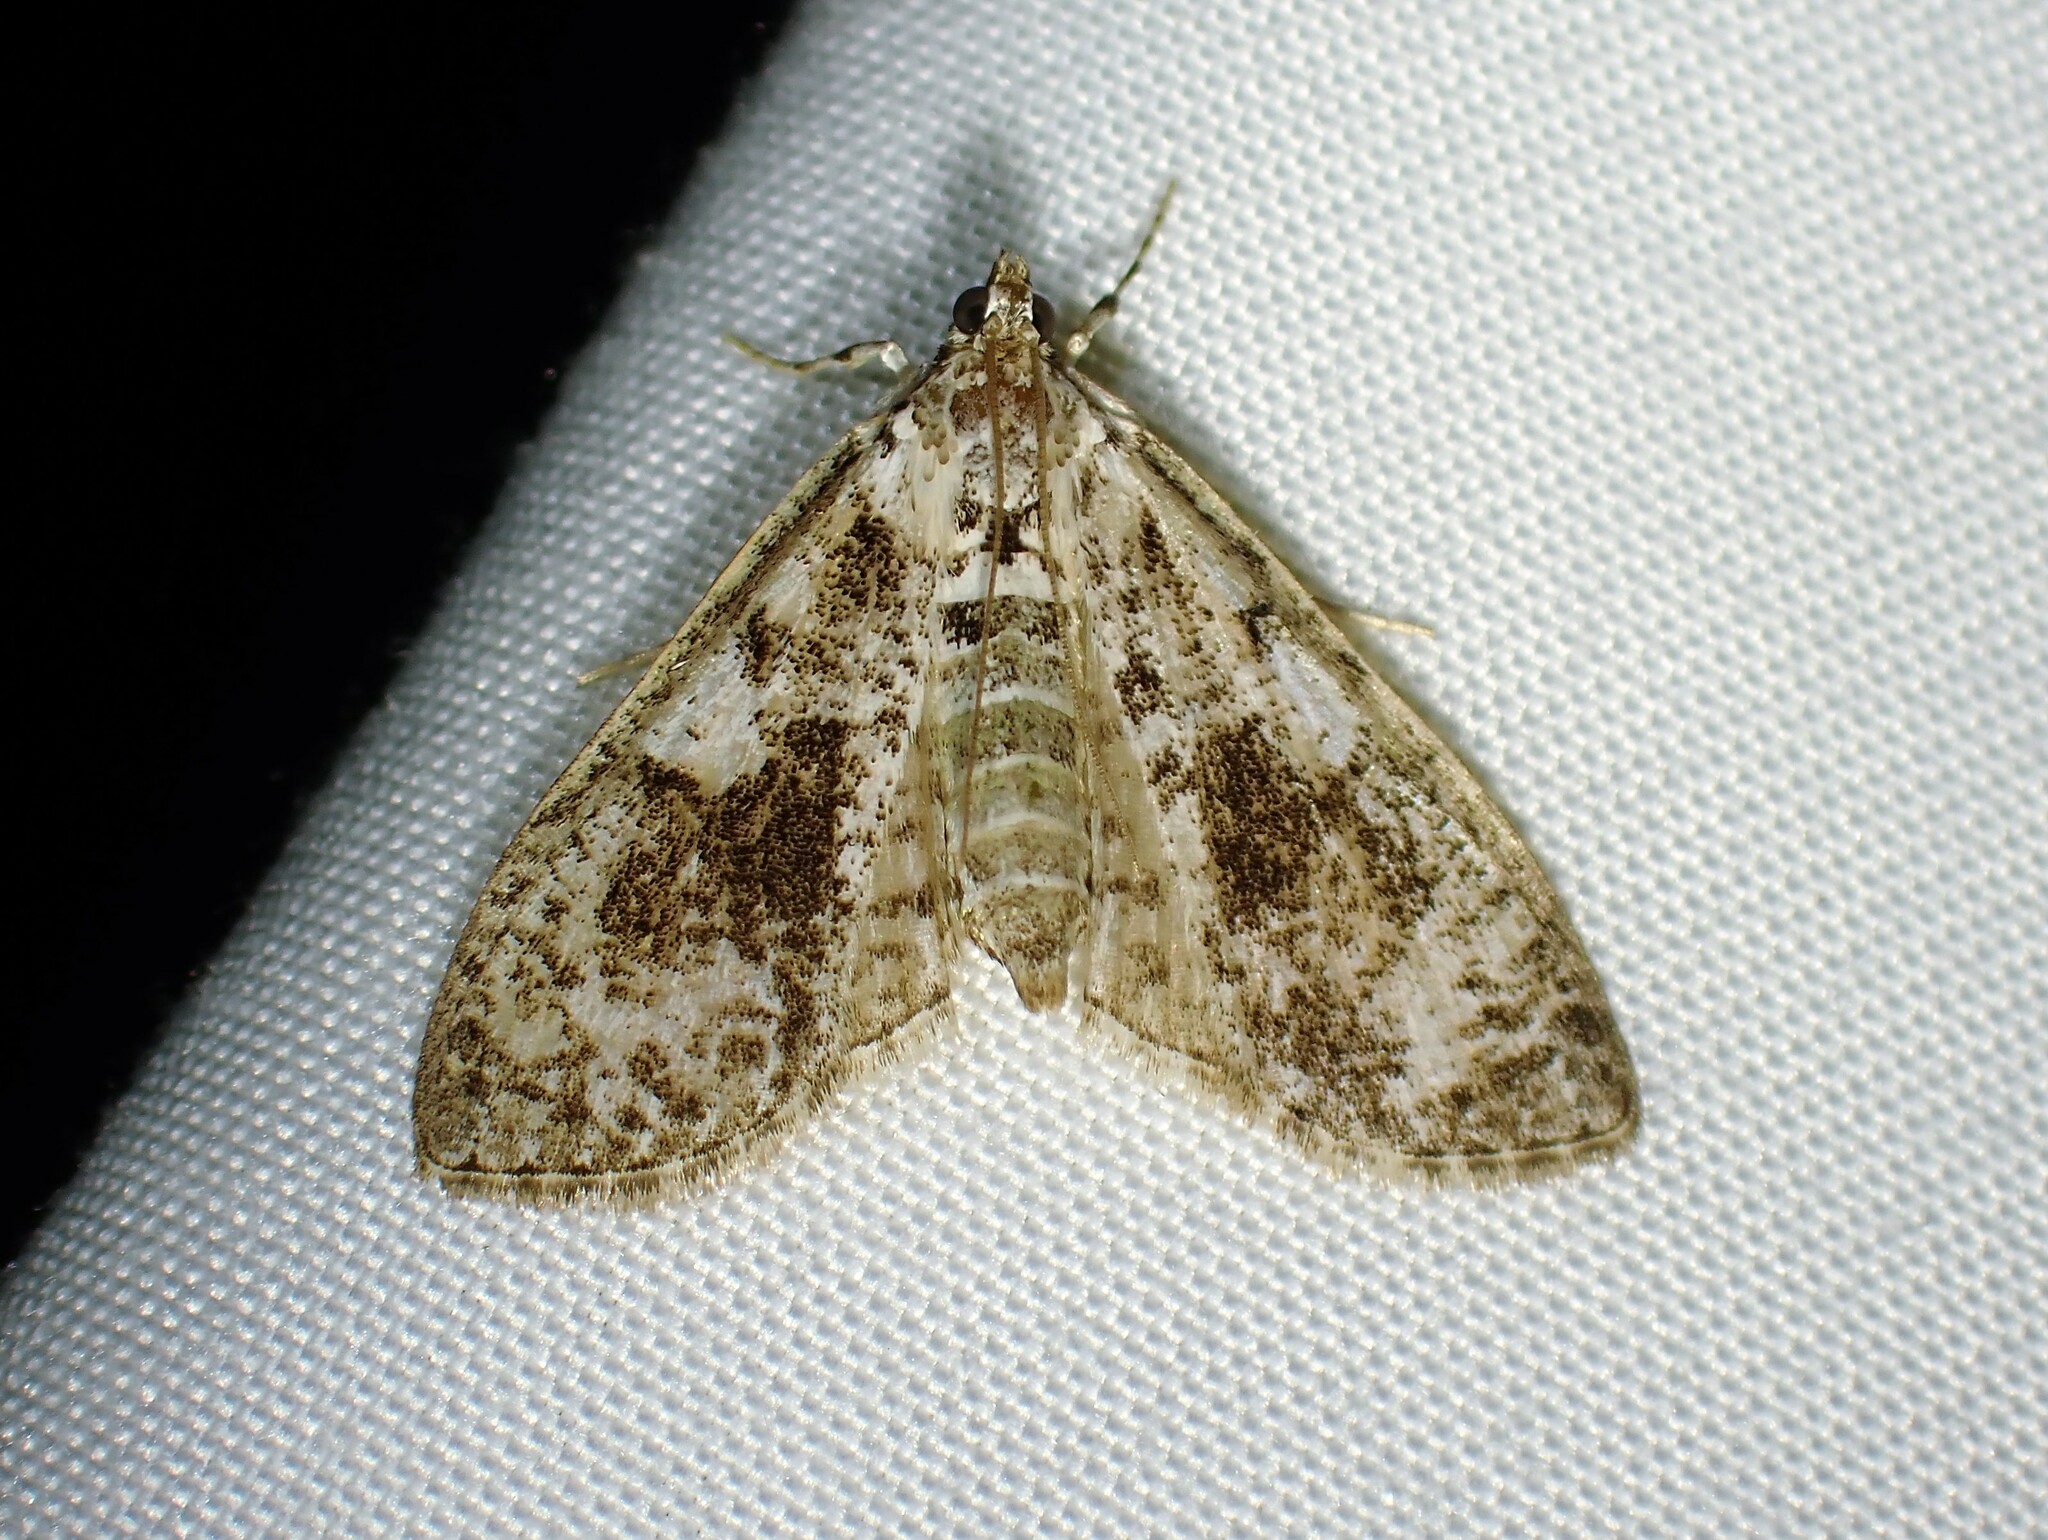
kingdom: Animalia
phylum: Arthropoda
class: Insecta
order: Lepidoptera
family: Crambidae
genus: Palpita
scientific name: Palpita magniferalis
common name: Splendid palpita moth
